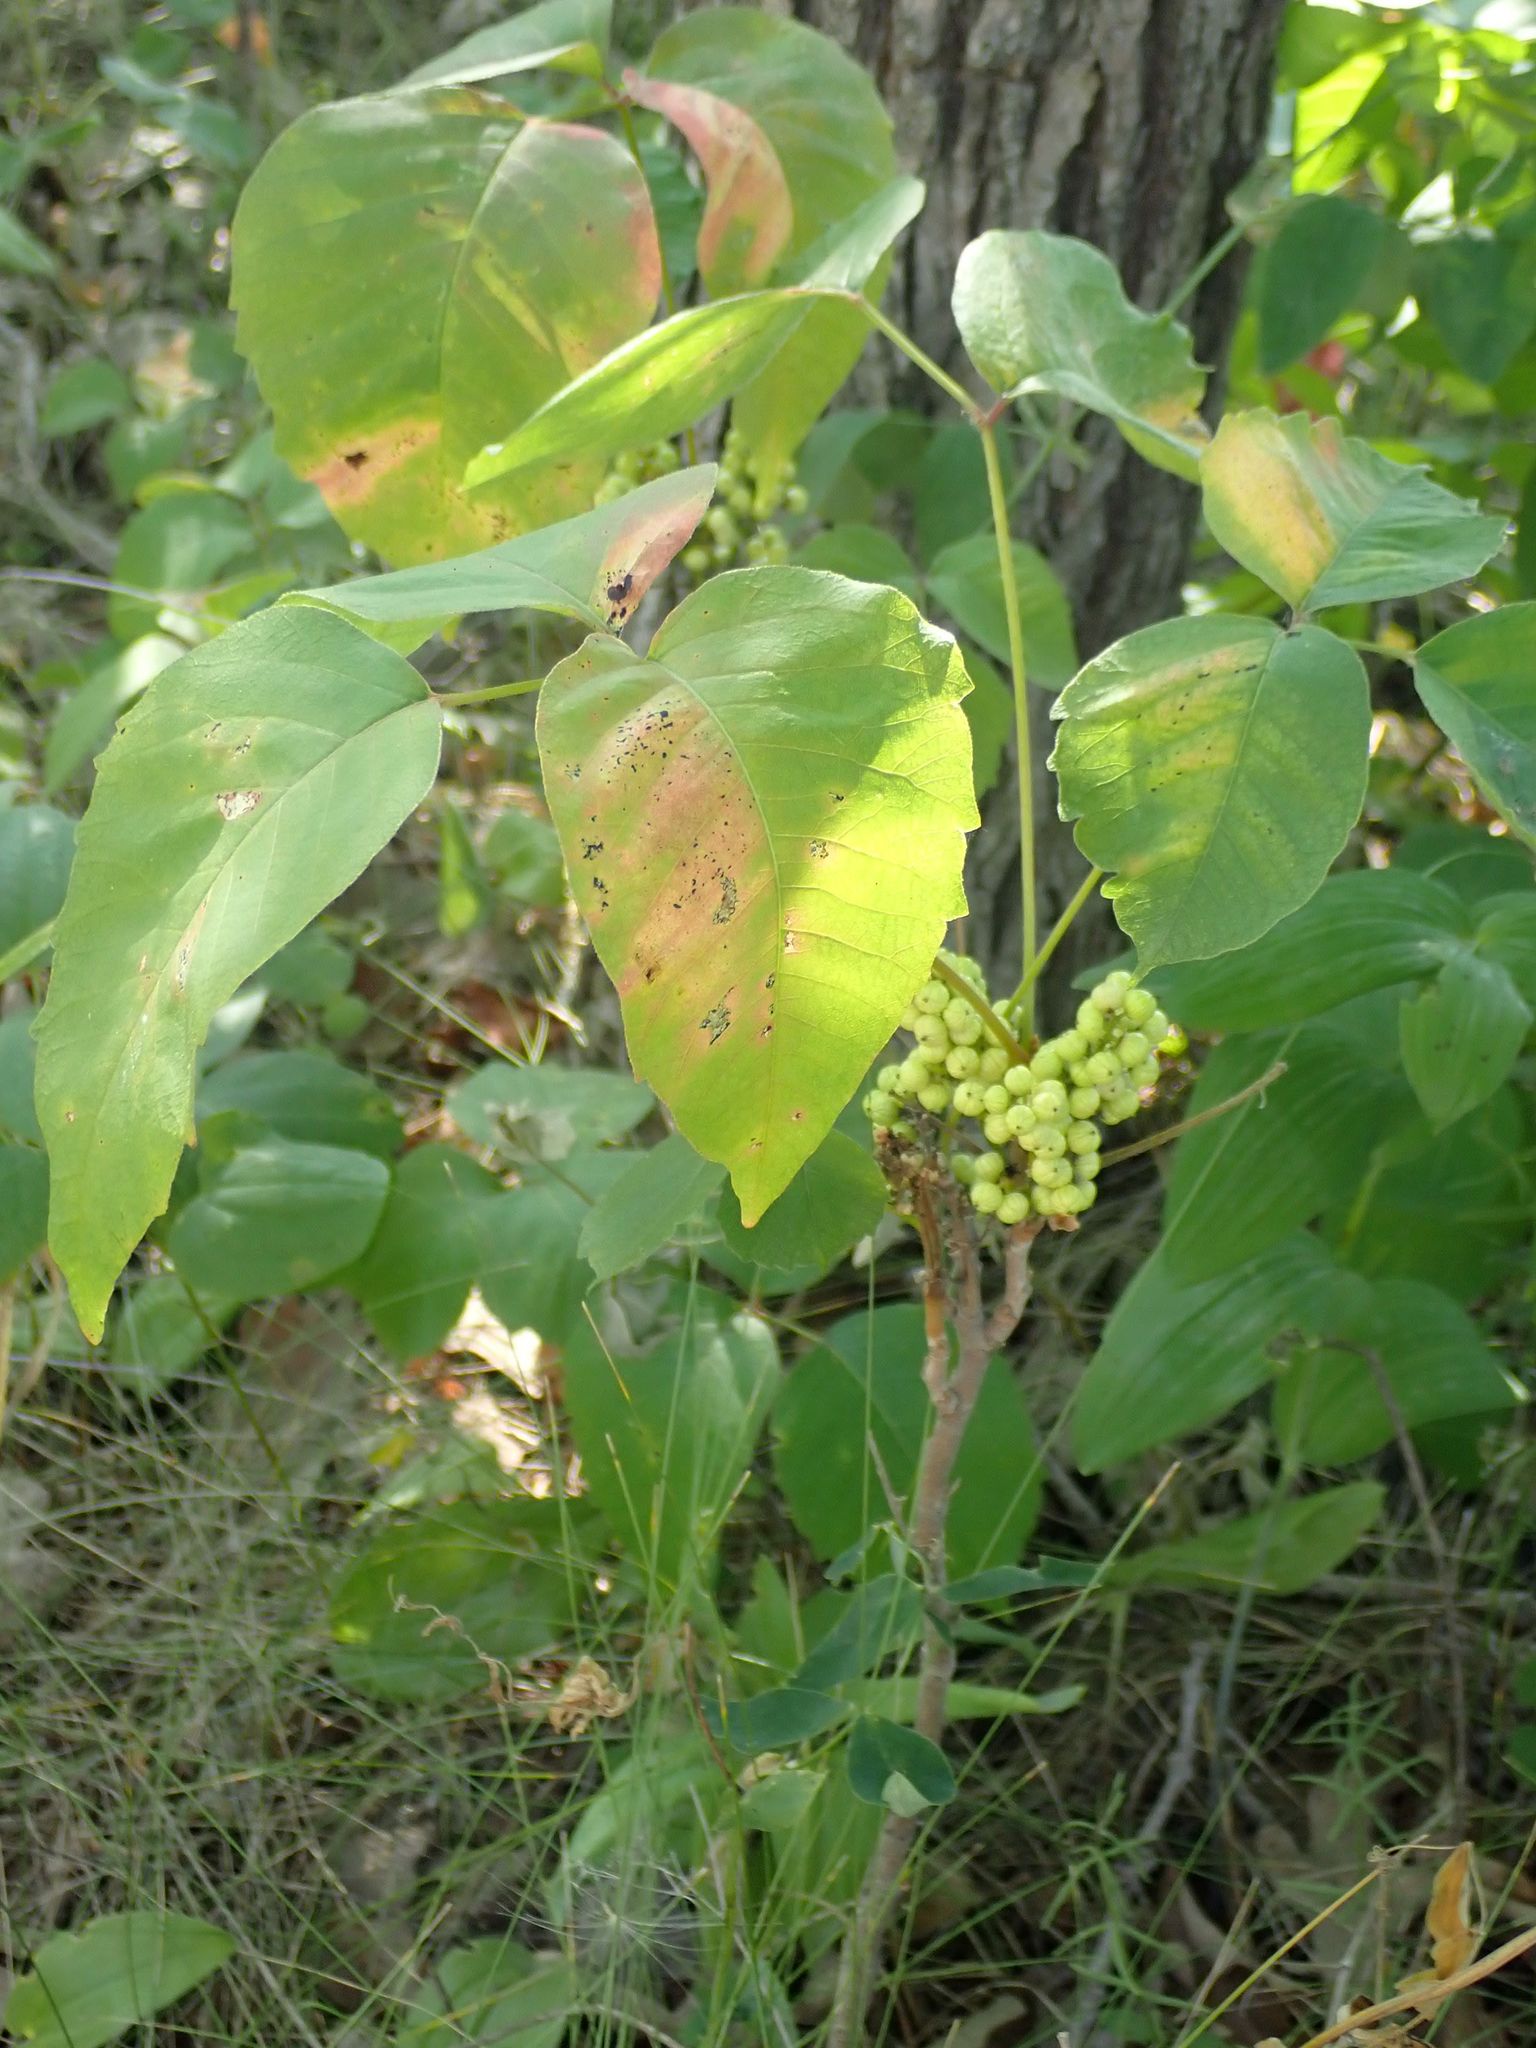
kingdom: Plantae
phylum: Tracheophyta
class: Magnoliopsida
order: Sapindales
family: Anacardiaceae
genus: Toxicodendron
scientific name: Toxicodendron rydbergii
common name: Rydberg's poison-ivy
